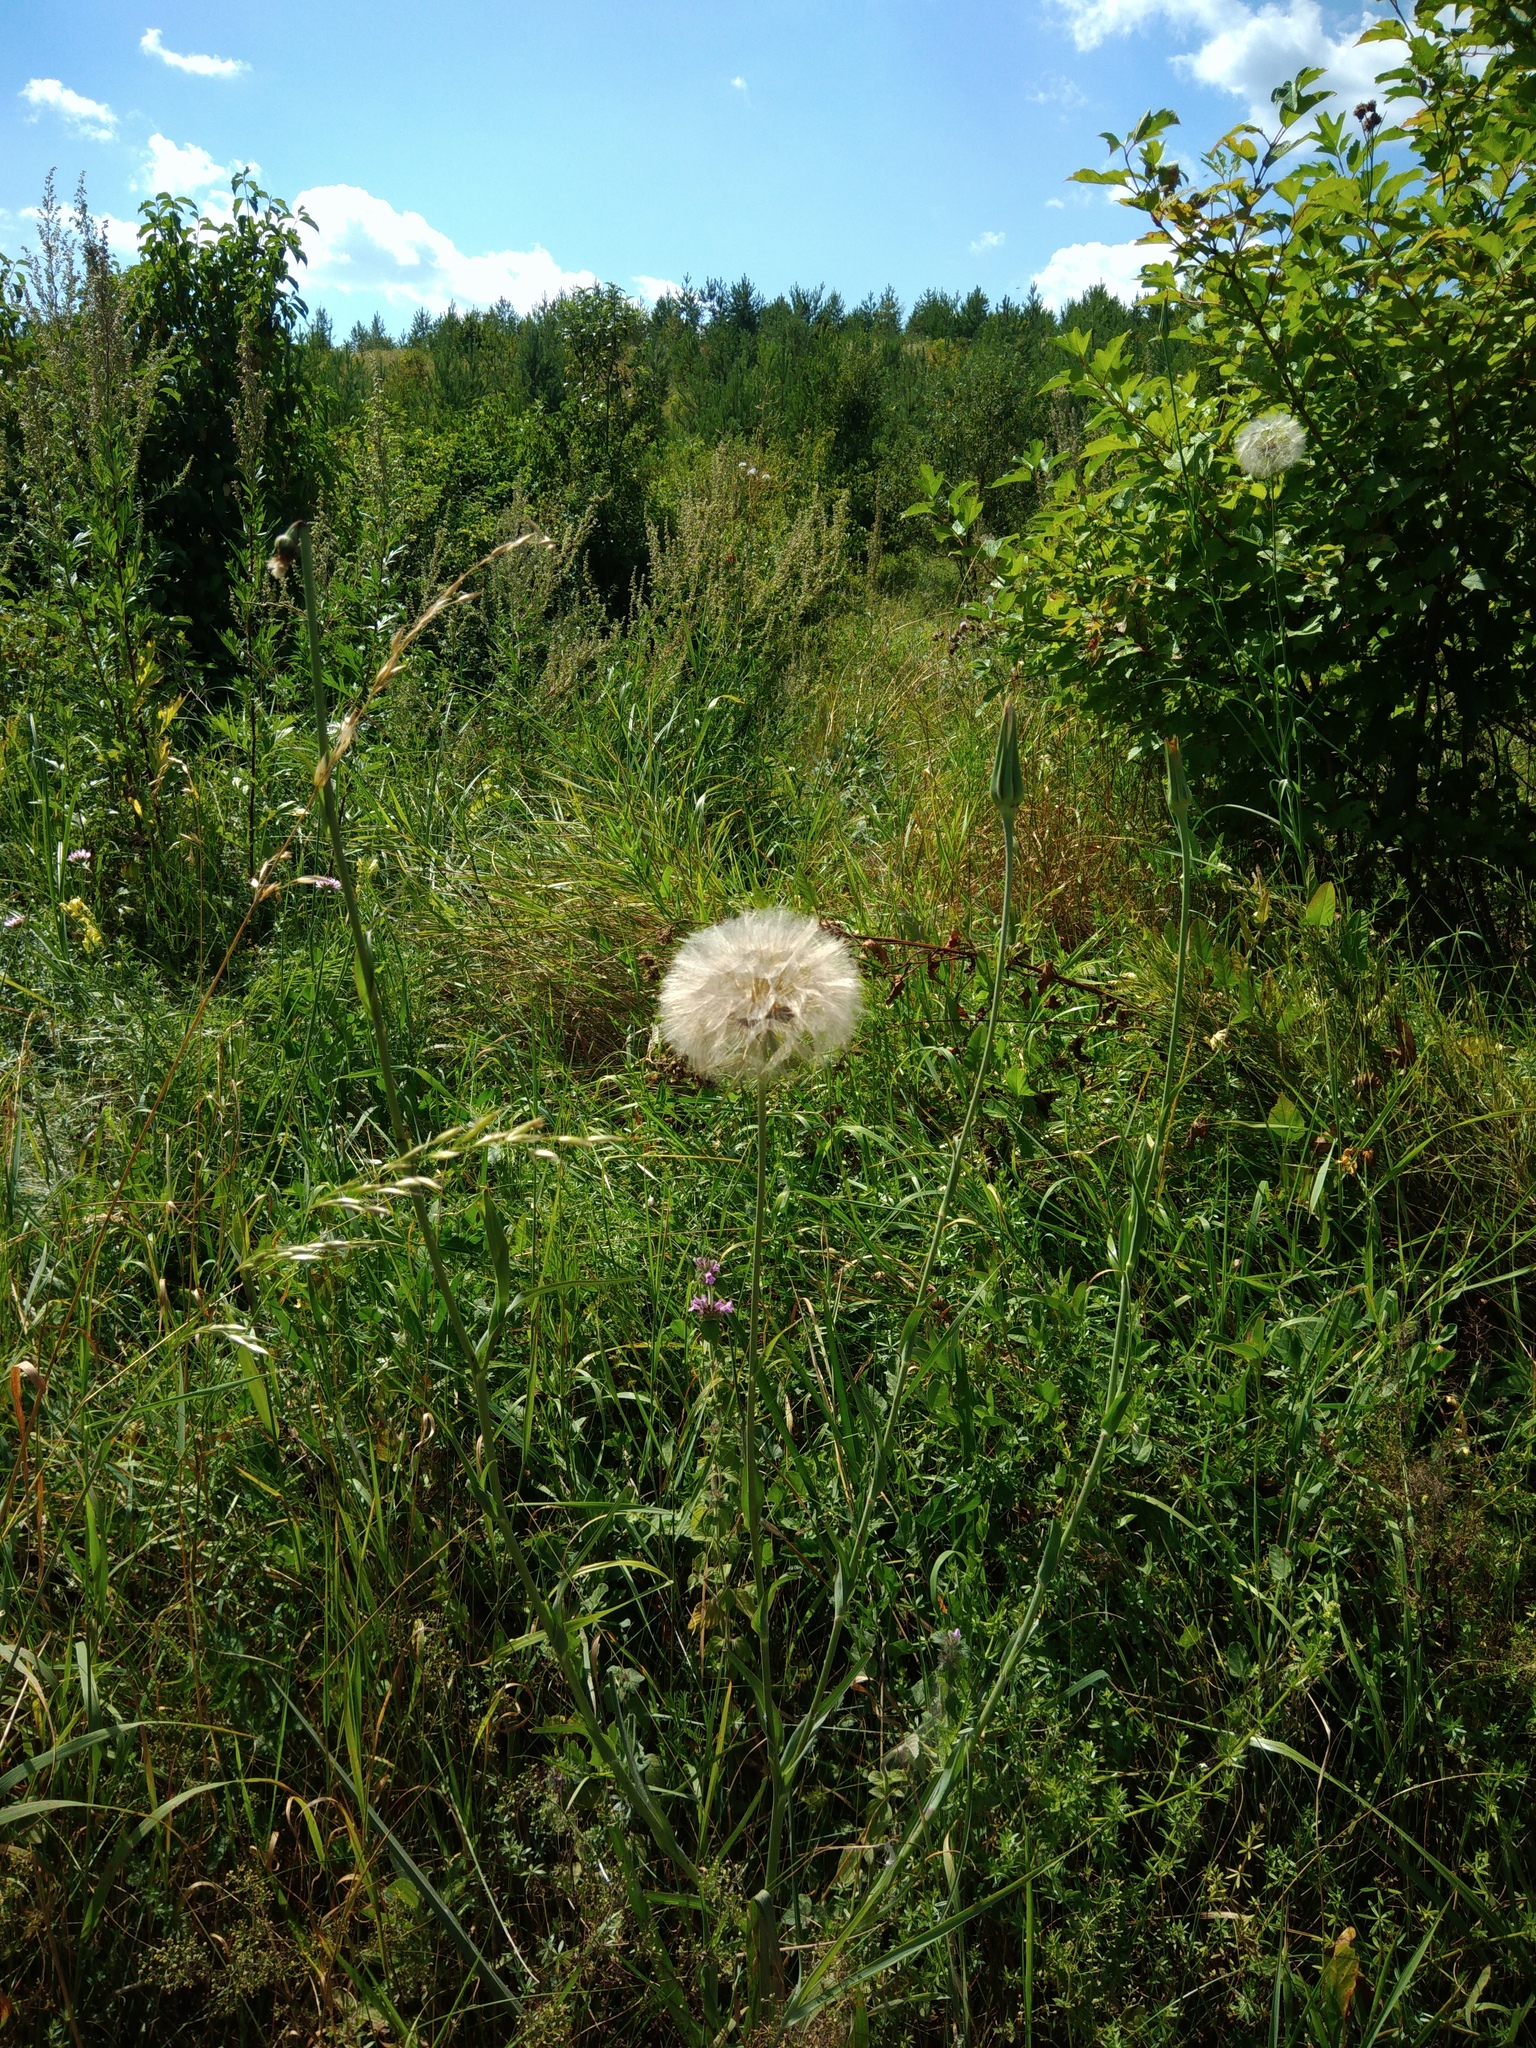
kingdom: Plantae
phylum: Tracheophyta
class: Magnoliopsida
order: Asterales
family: Asteraceae
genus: Tragopogon
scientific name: Tragopogon dubius
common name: Yellow salsify
